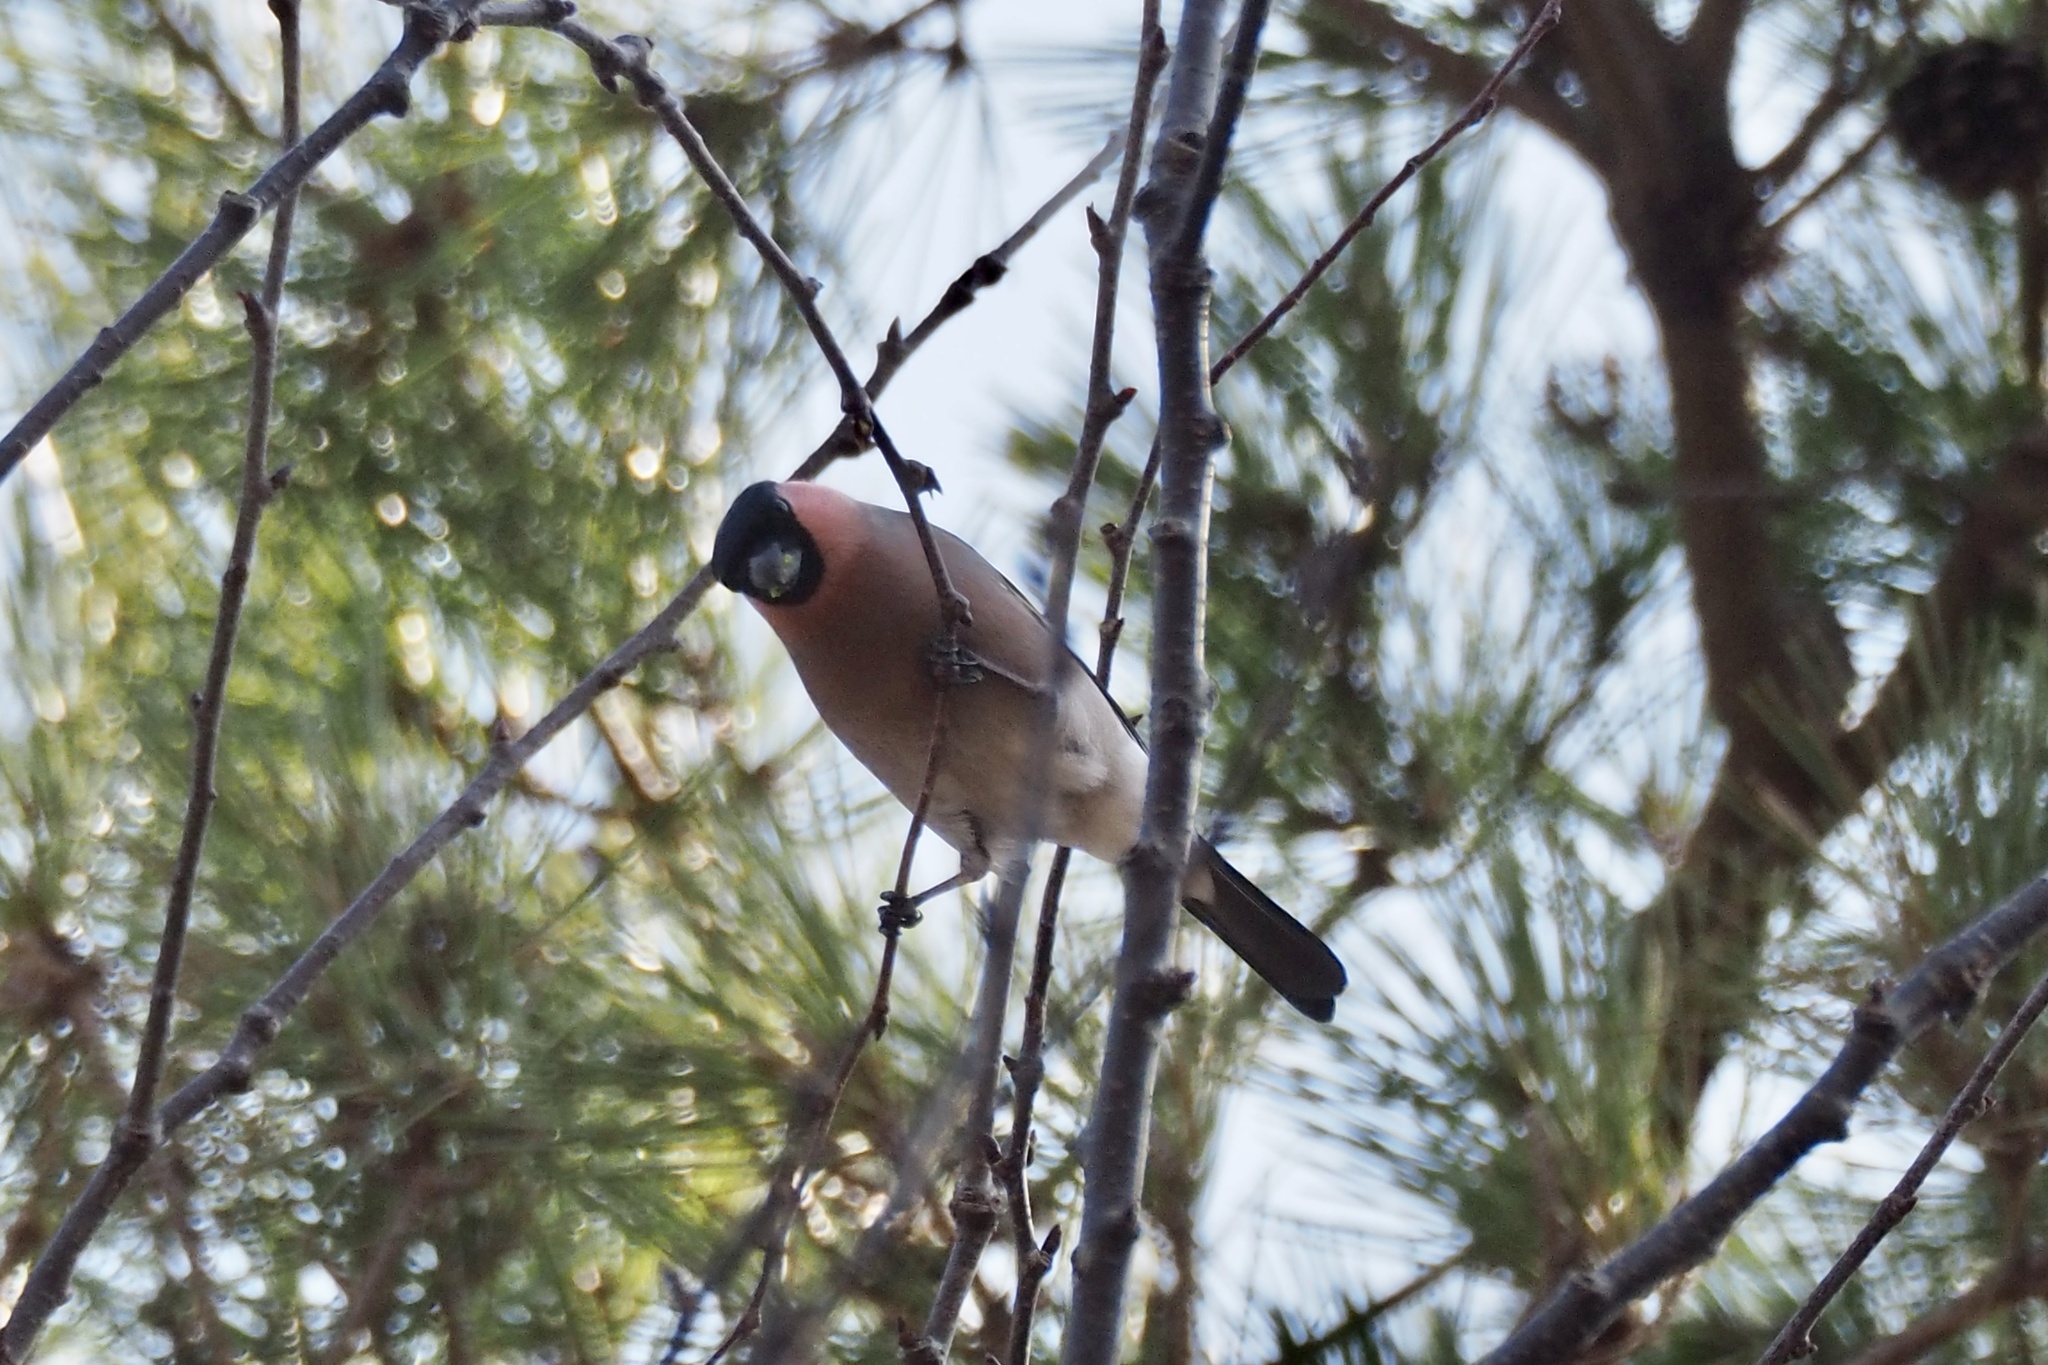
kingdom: Animalia
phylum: Chordata
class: Aves
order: Passeriformes
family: Fringillidae
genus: Pyrrhula
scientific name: Pyrrhula pyrrhula
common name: Eurasian bullfinch
